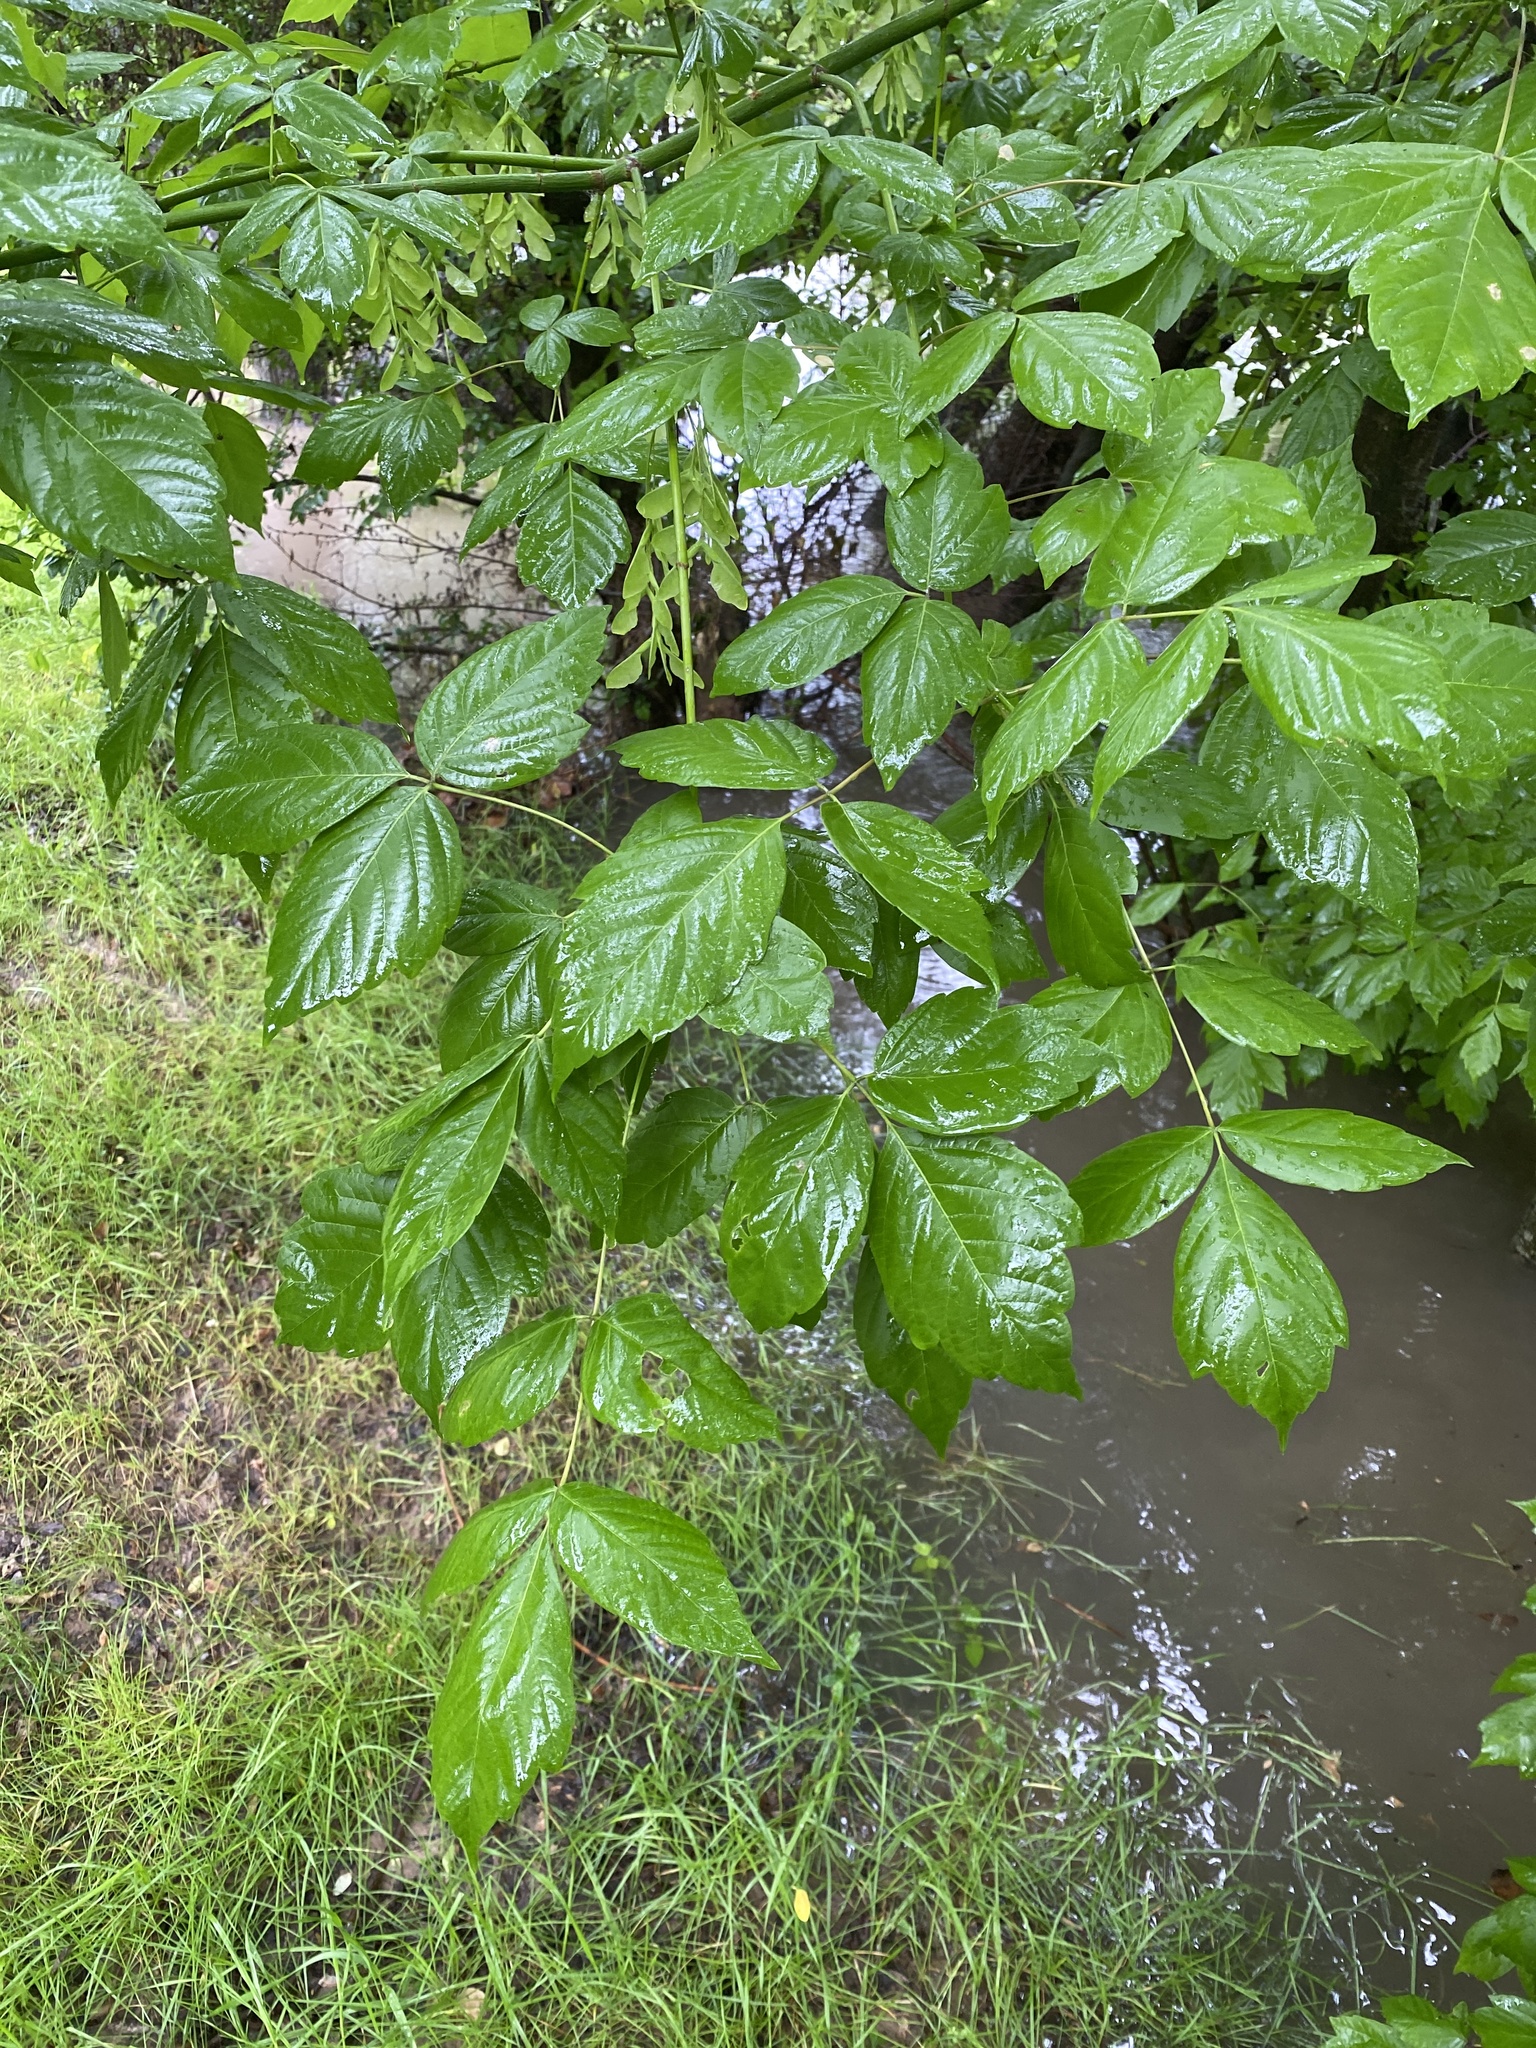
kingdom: Plantae
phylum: Tracheophyta
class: Magnoliopsida
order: Sapindales
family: Sapindaceae
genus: Acer
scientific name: Acer negundo
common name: Ashleaf maple
